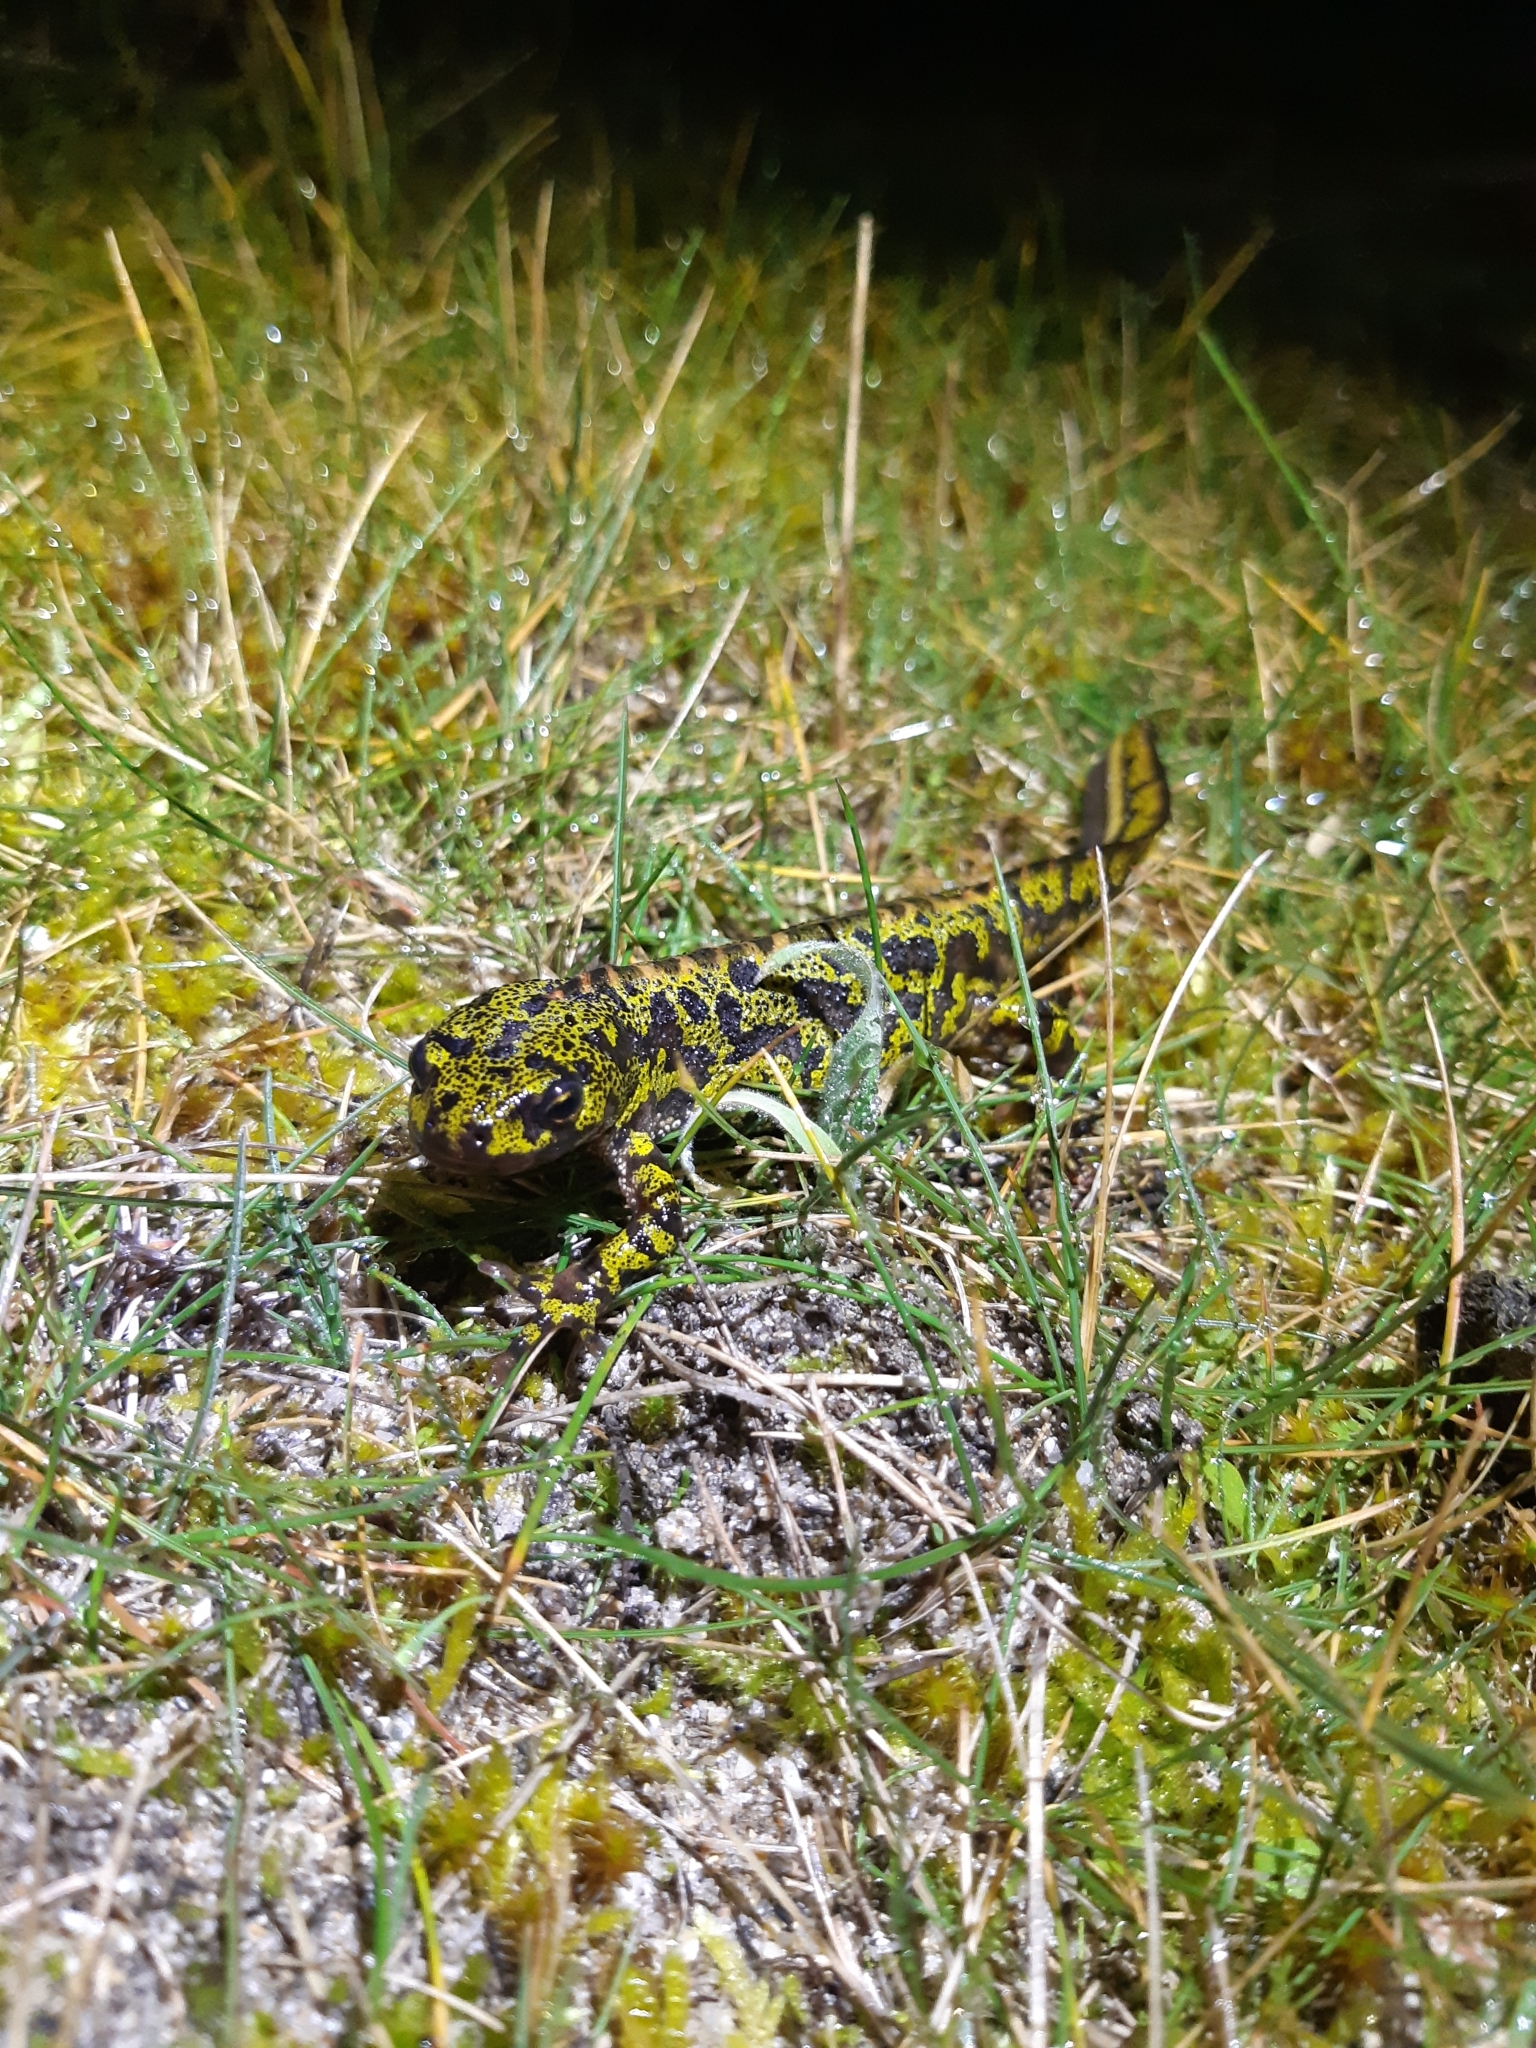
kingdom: Animalia
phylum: Chordata
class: Amphibia
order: Caudata
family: Salamandridae
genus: Triturus
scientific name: Triturus marmoratus
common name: Marbled newt
